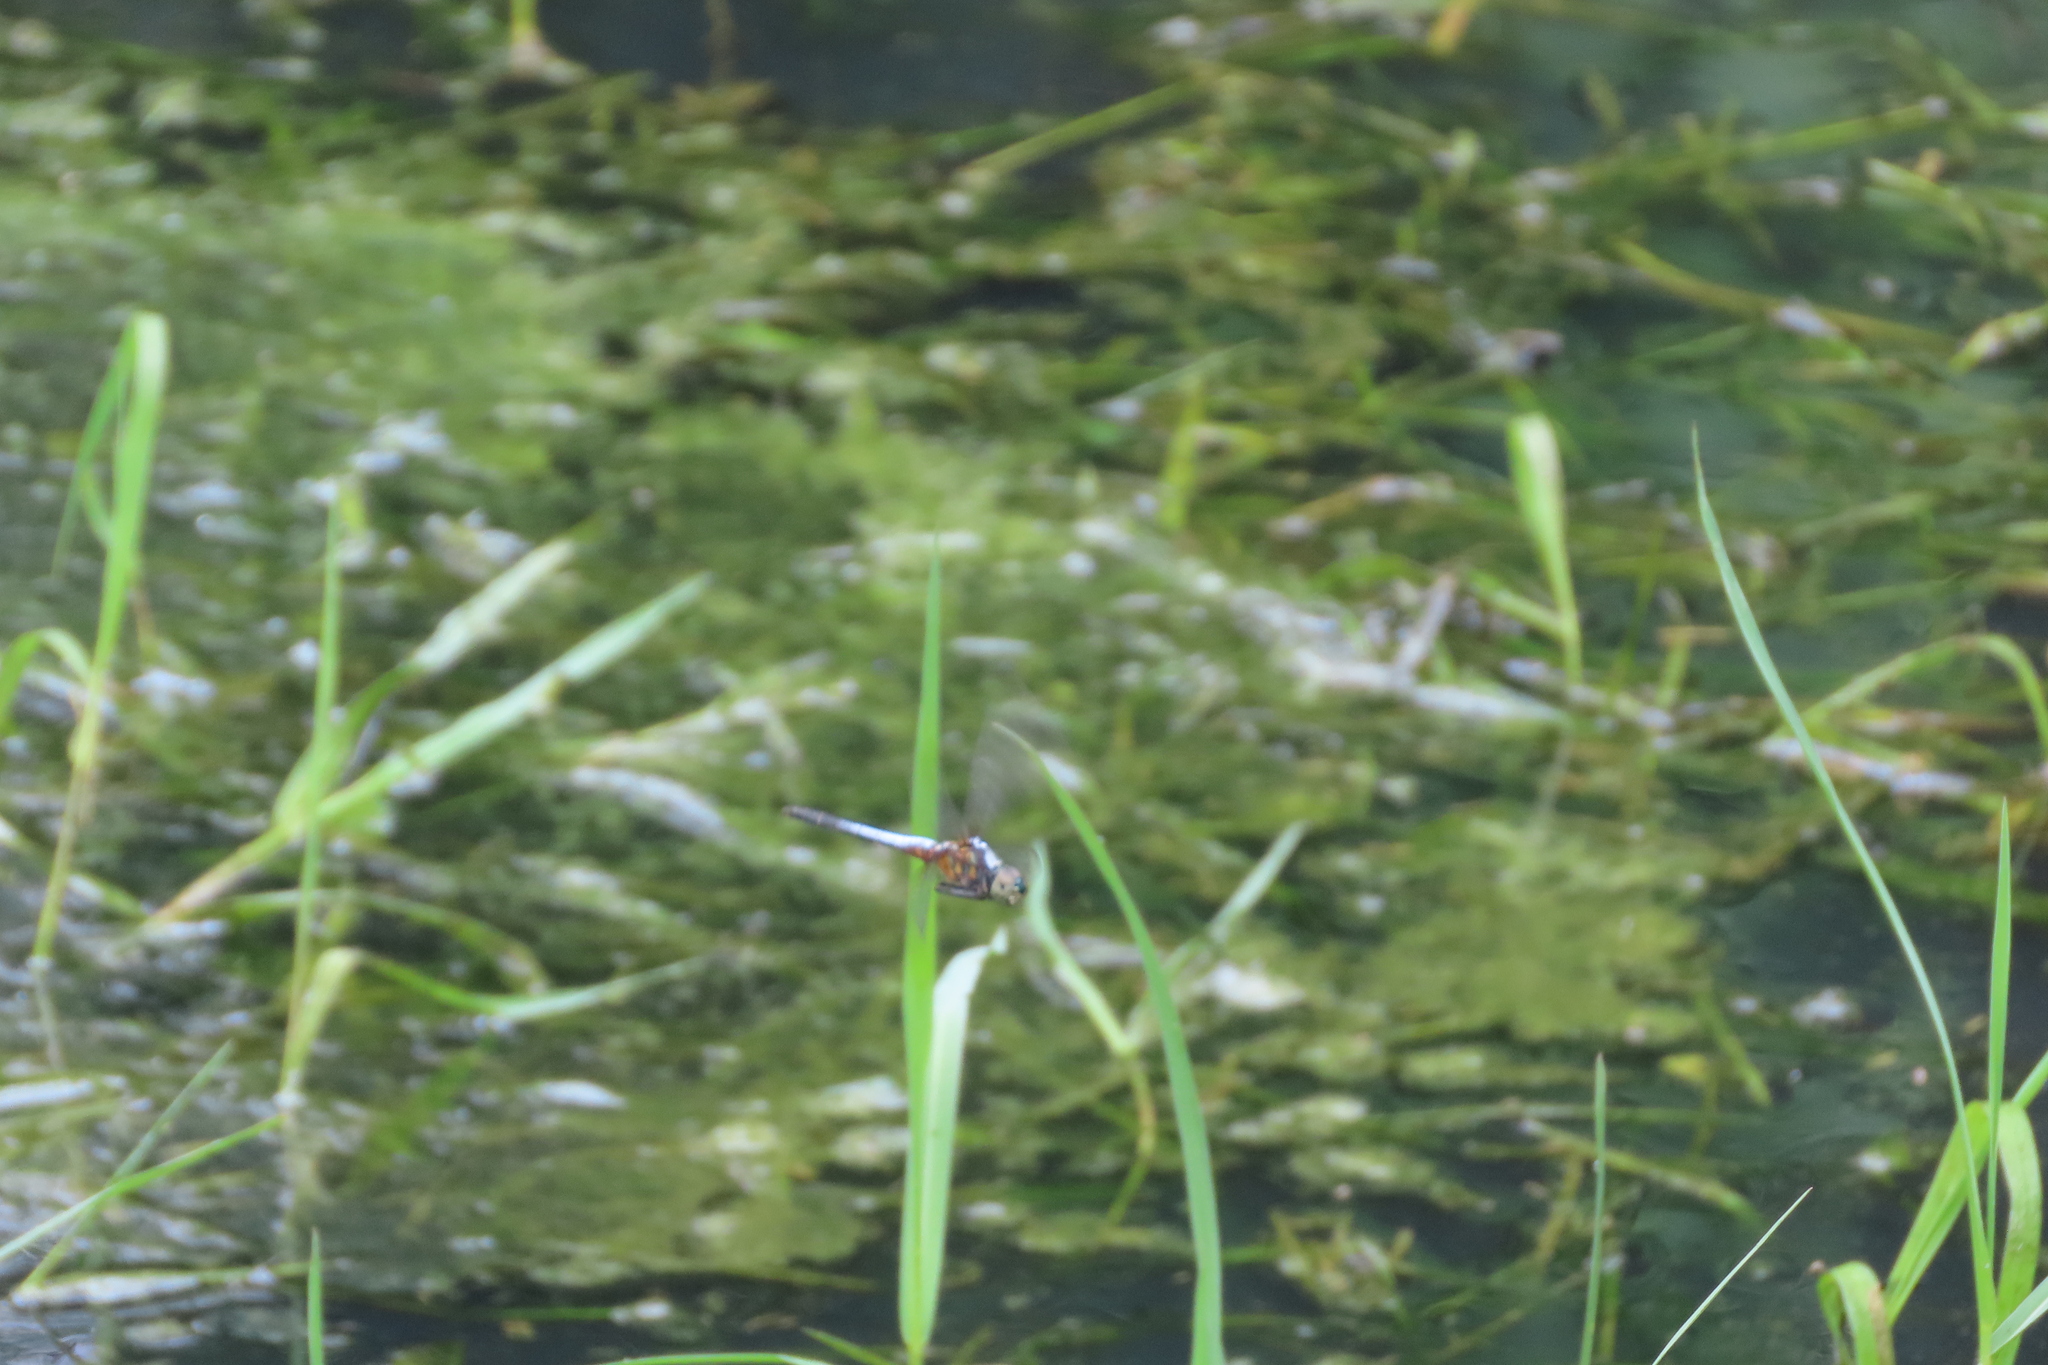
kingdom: Animalia
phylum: Arthropoda
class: Insecta
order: Odonata
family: Libellulidae
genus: Brachydiplax
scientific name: Brachydiplax chalybea
